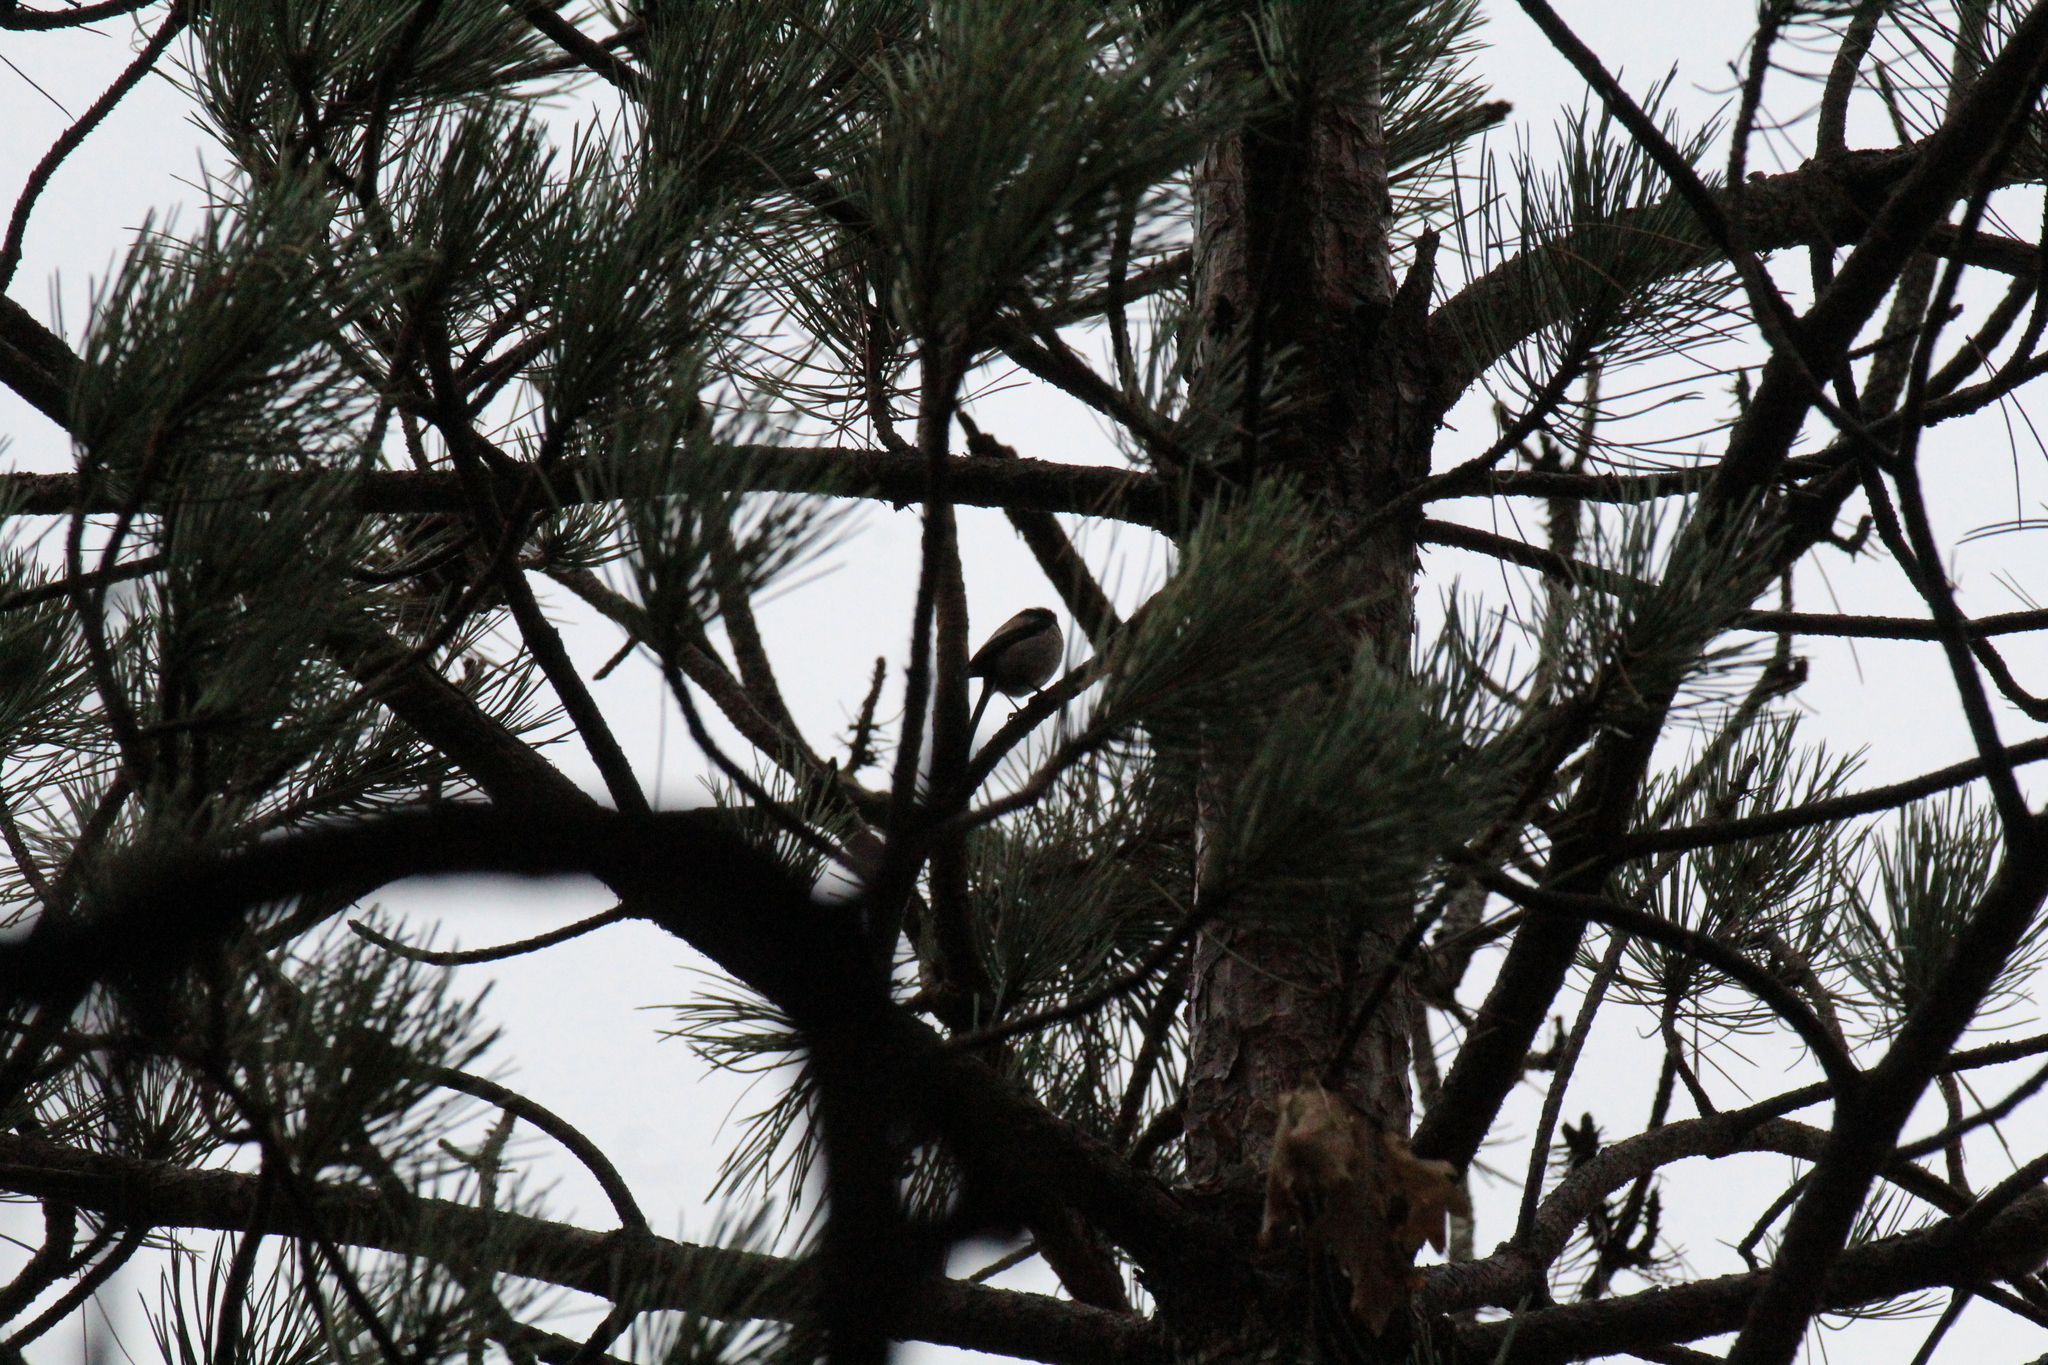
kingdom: Animalia
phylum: Chordata
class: Aves
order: Passeriformes
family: Aegithalidae
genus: Aegithalos
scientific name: Aegithalos caudatus
